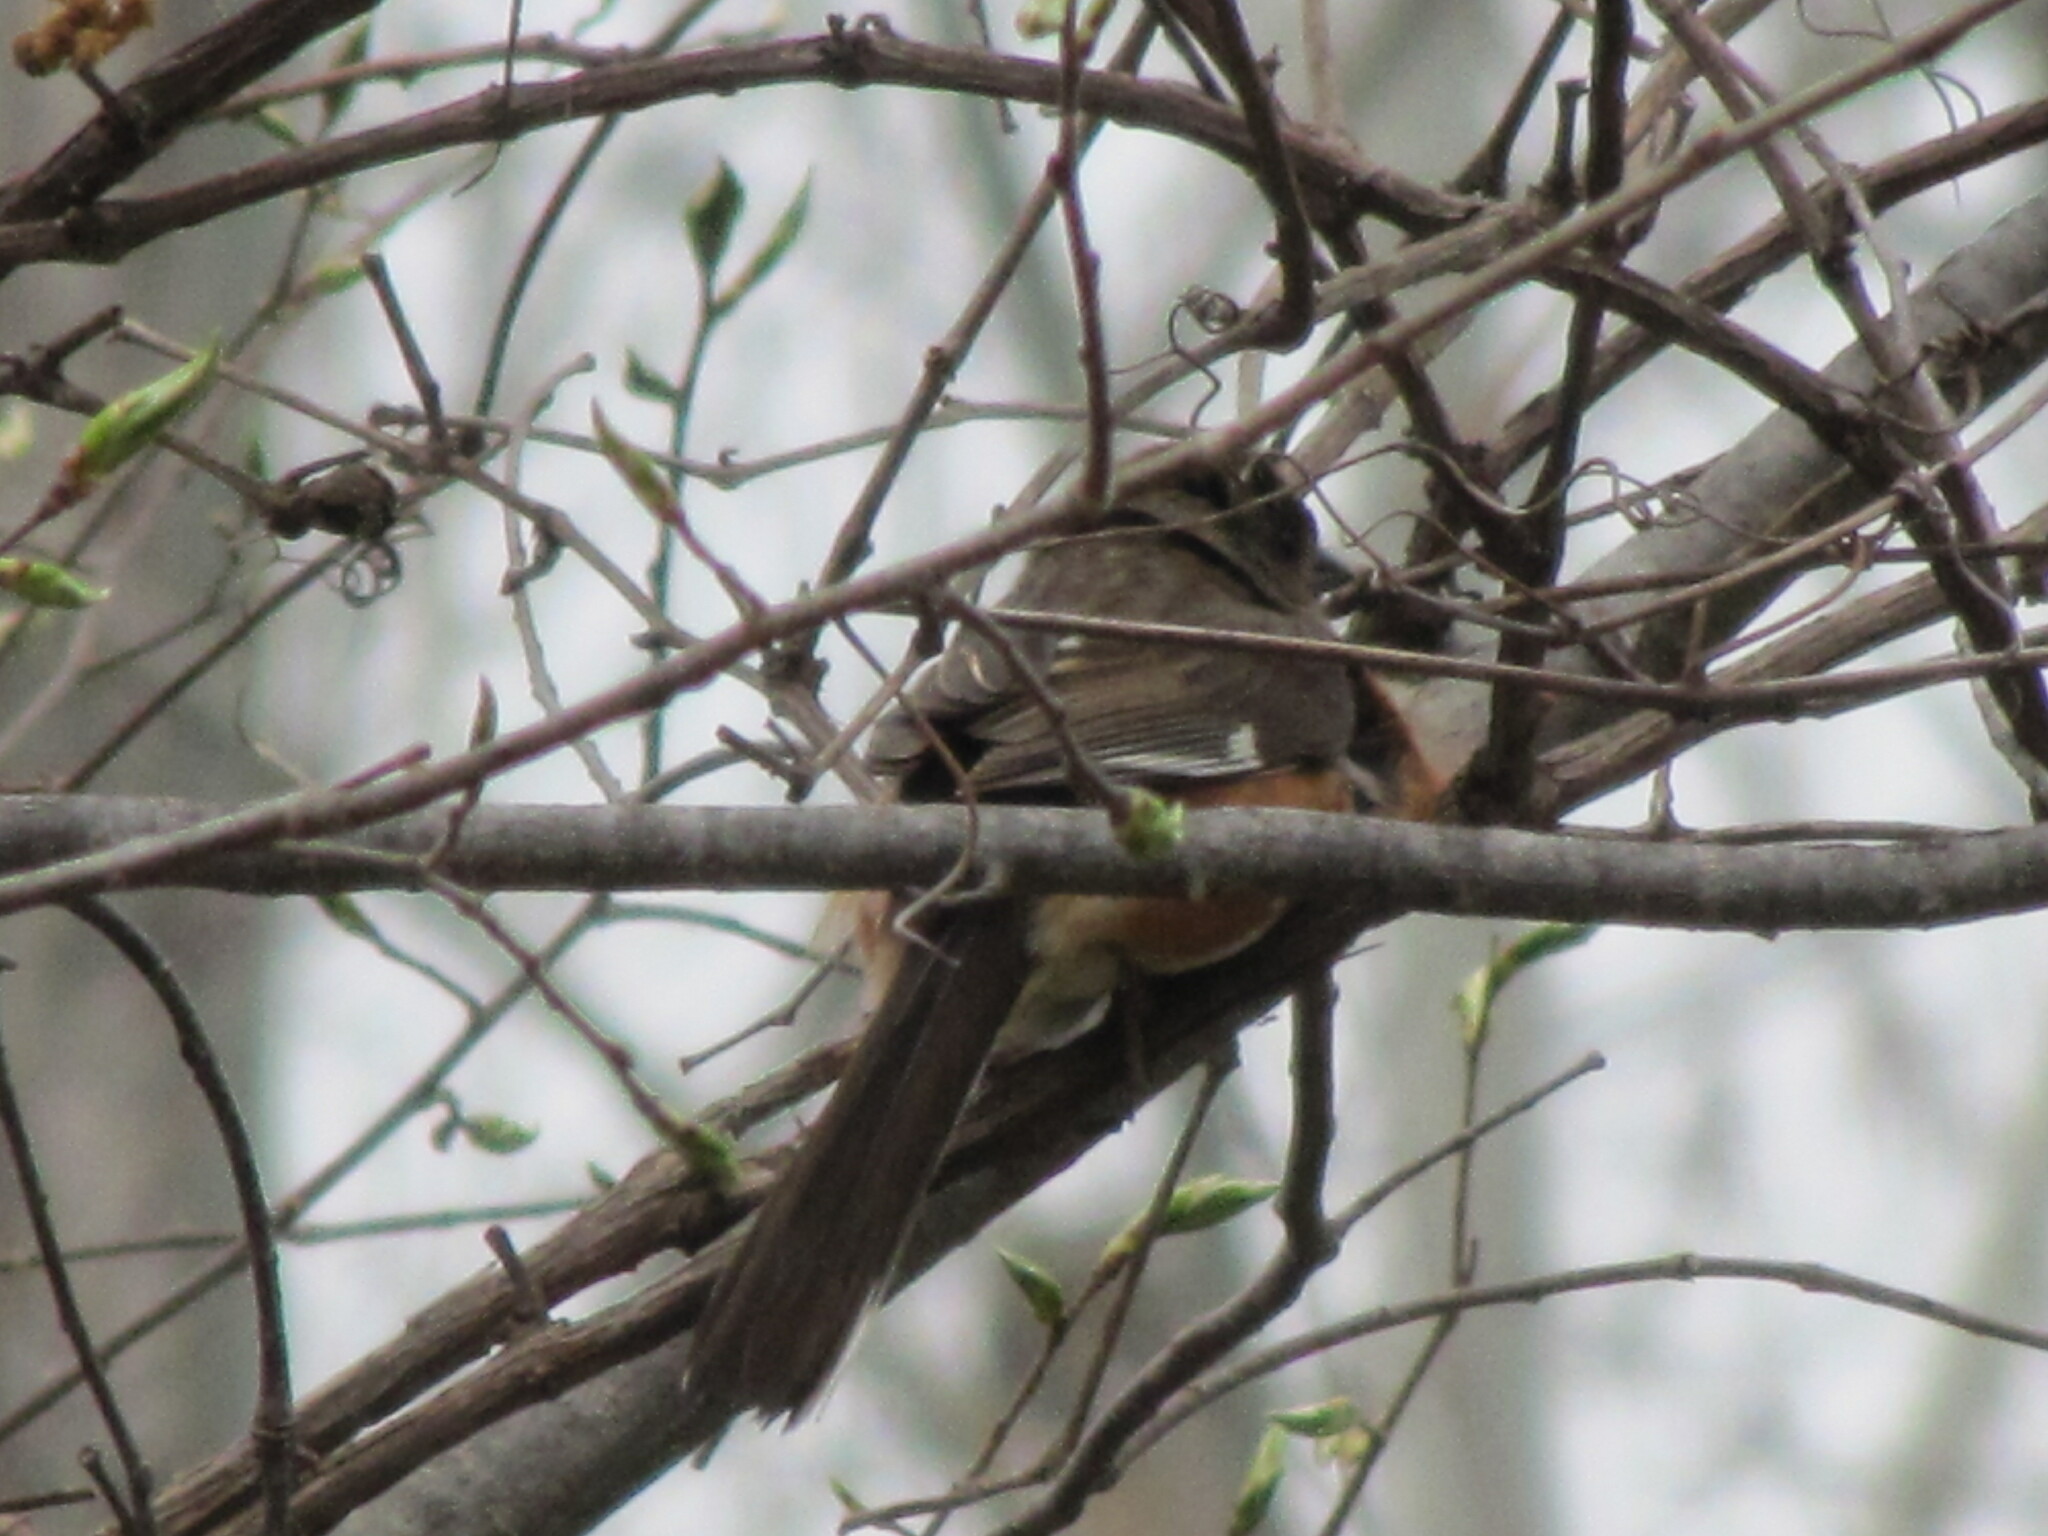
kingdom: Animalia
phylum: Chordata
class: Aves
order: Passeriformes
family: Passerellidae
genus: Pipilo
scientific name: Pipilo erythrophthalmus
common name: Eastern towhee
